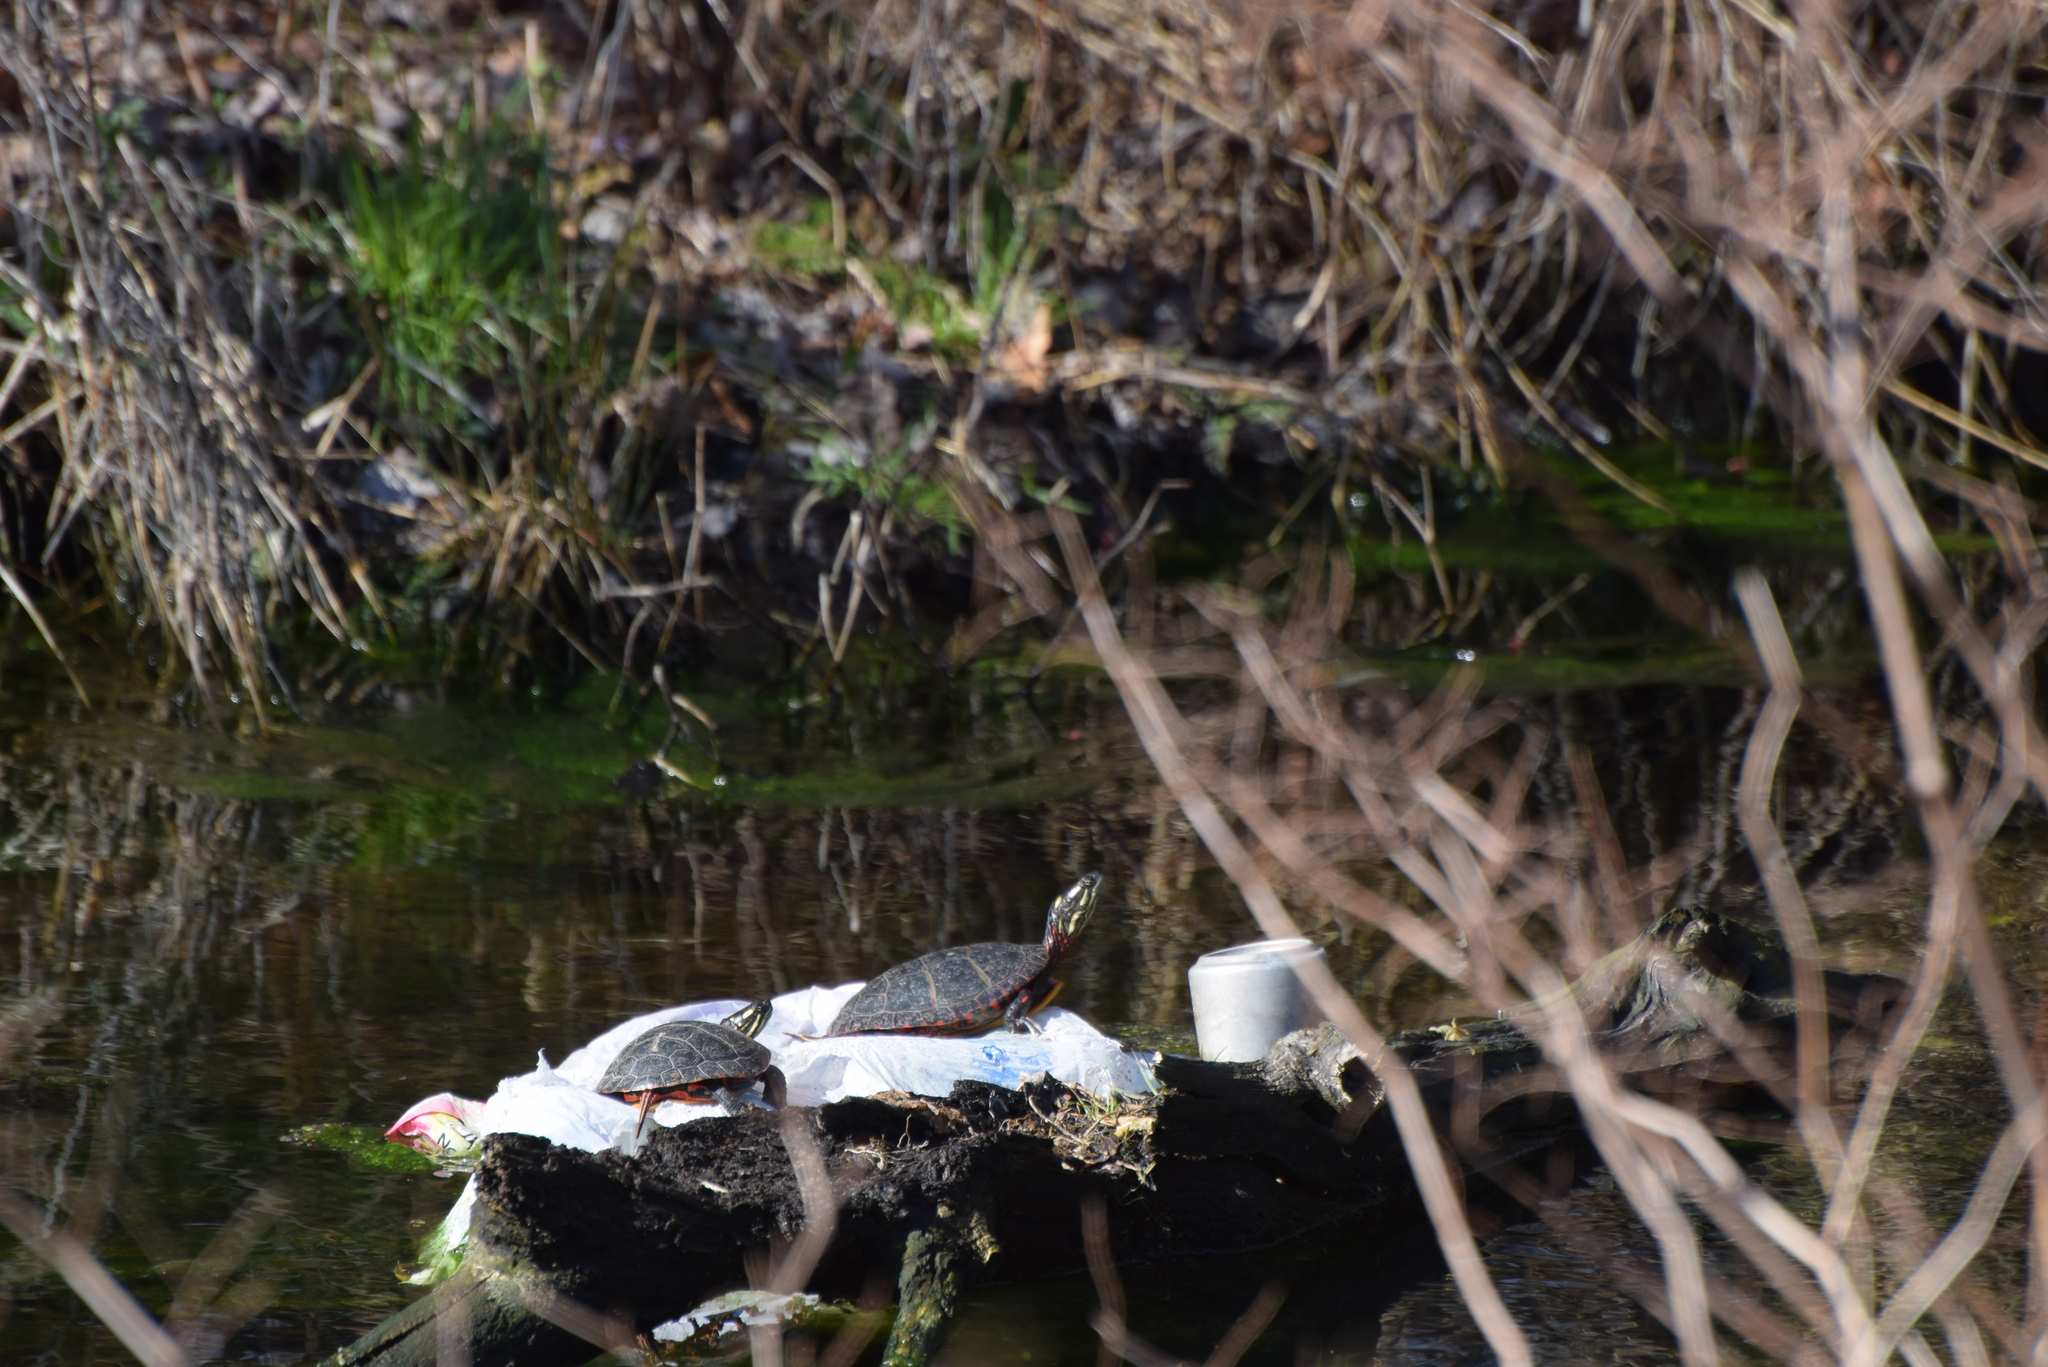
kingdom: Animalia
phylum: Chordata
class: Testudines
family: Emydidae
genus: Chrysemys
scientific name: Chrysemys picta
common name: Painted turtle
